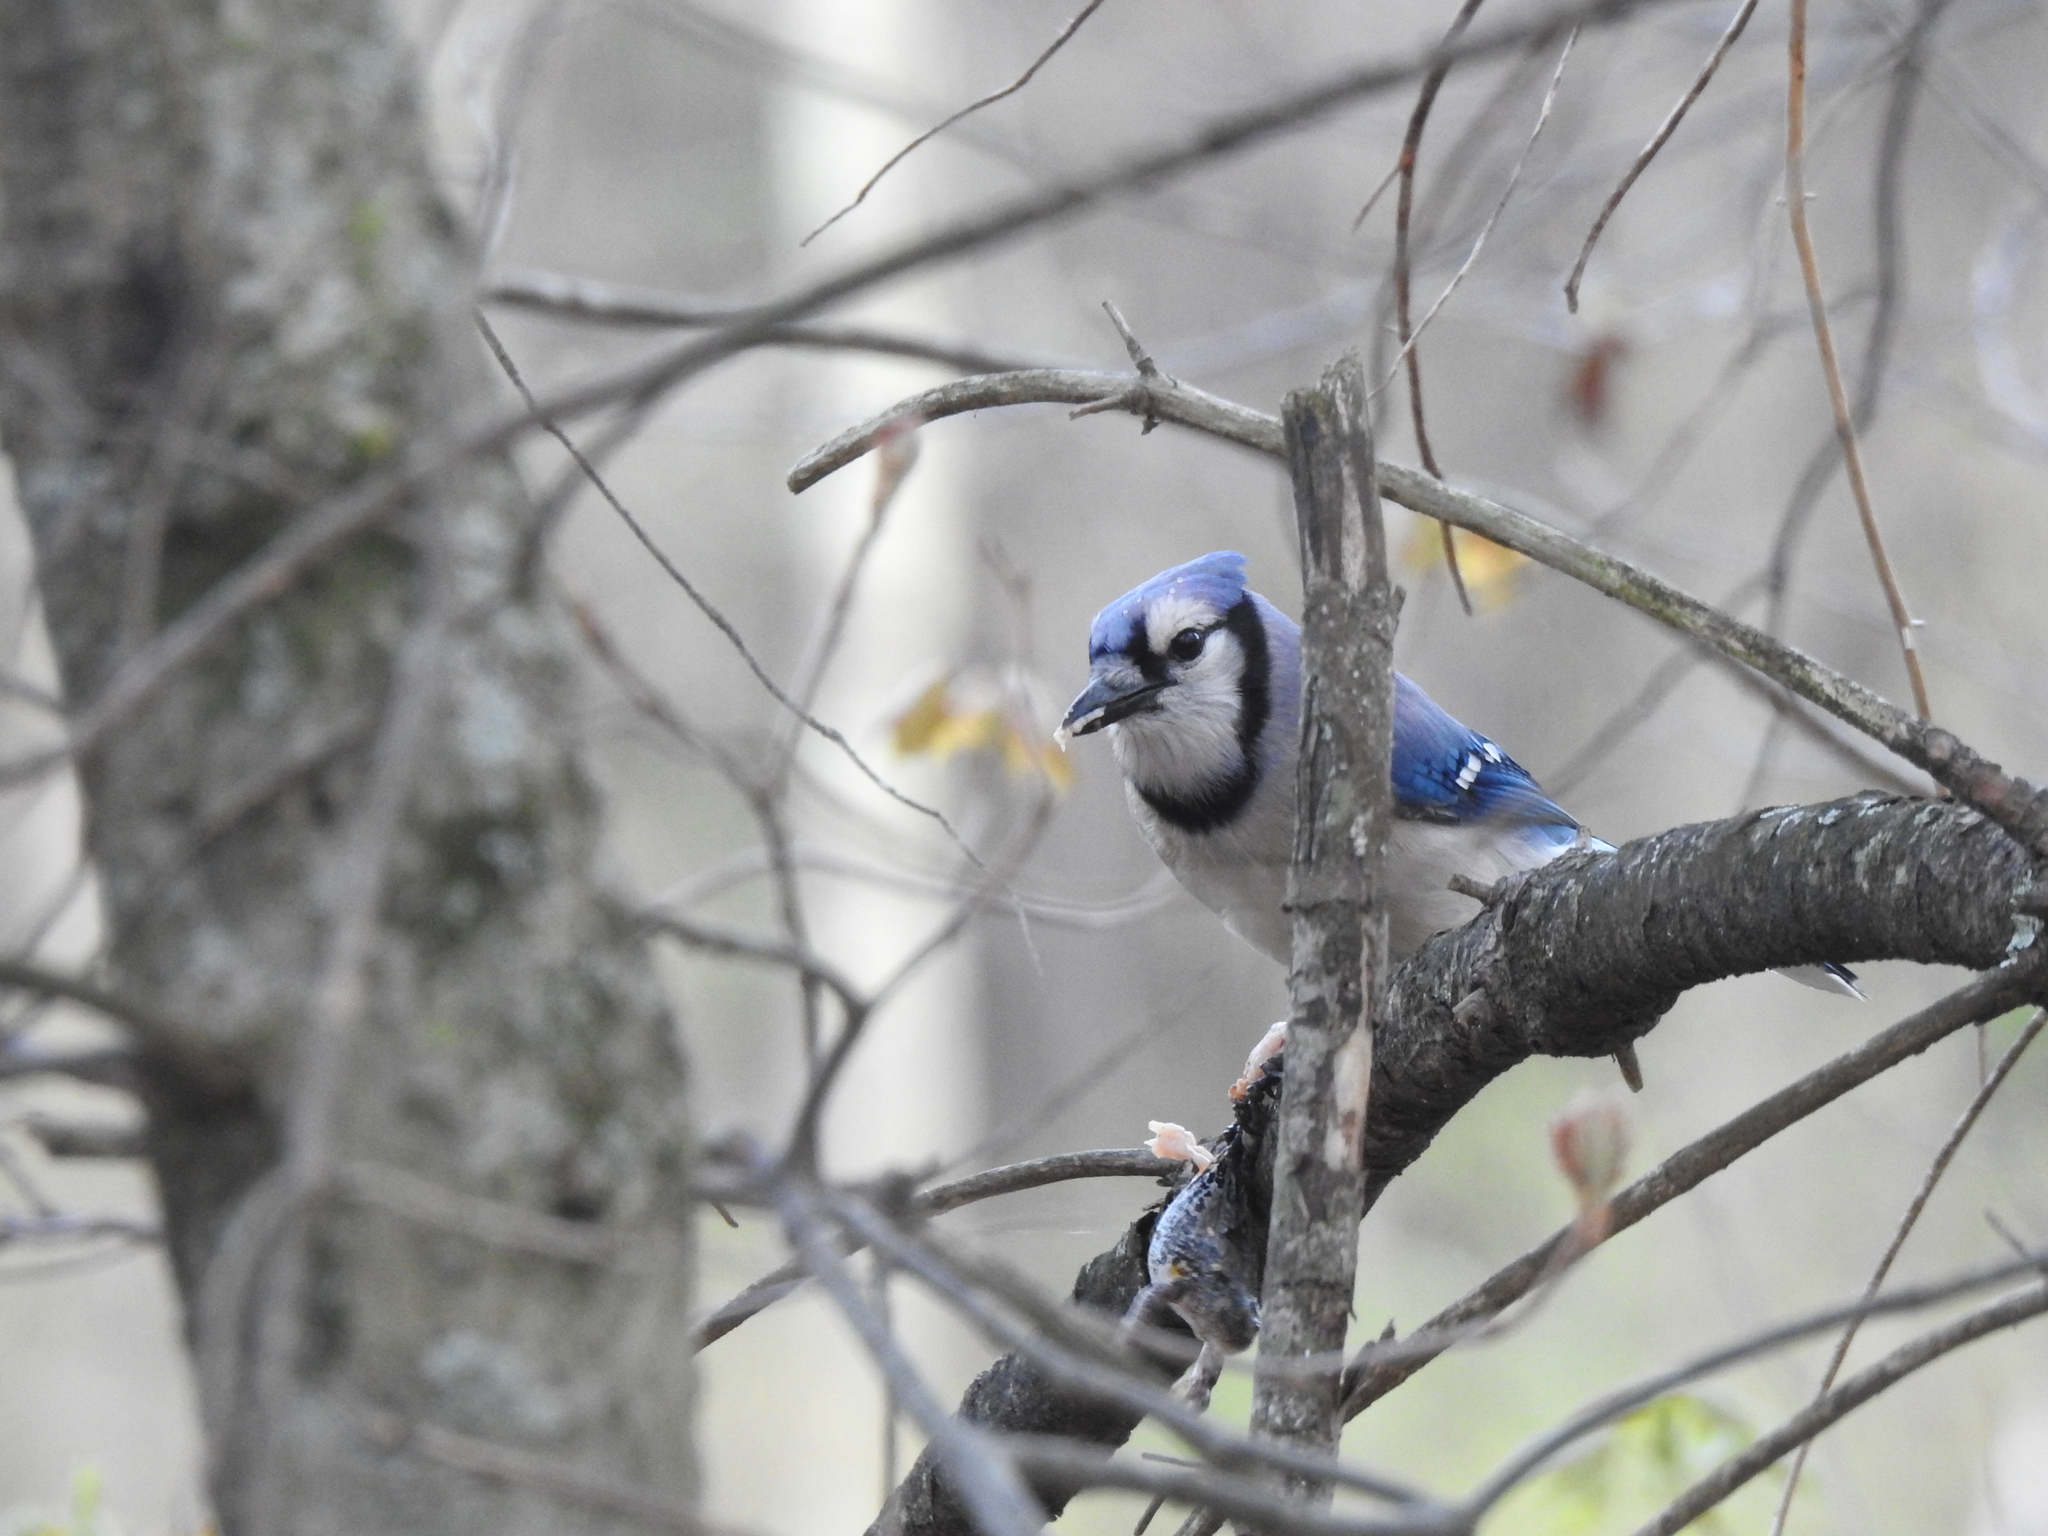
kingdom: Animalia
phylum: Chordata
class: Aves
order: Passeriformes
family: Corvidae
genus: Cyanocitta
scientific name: Cyanocitta cristata
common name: Blue jay
